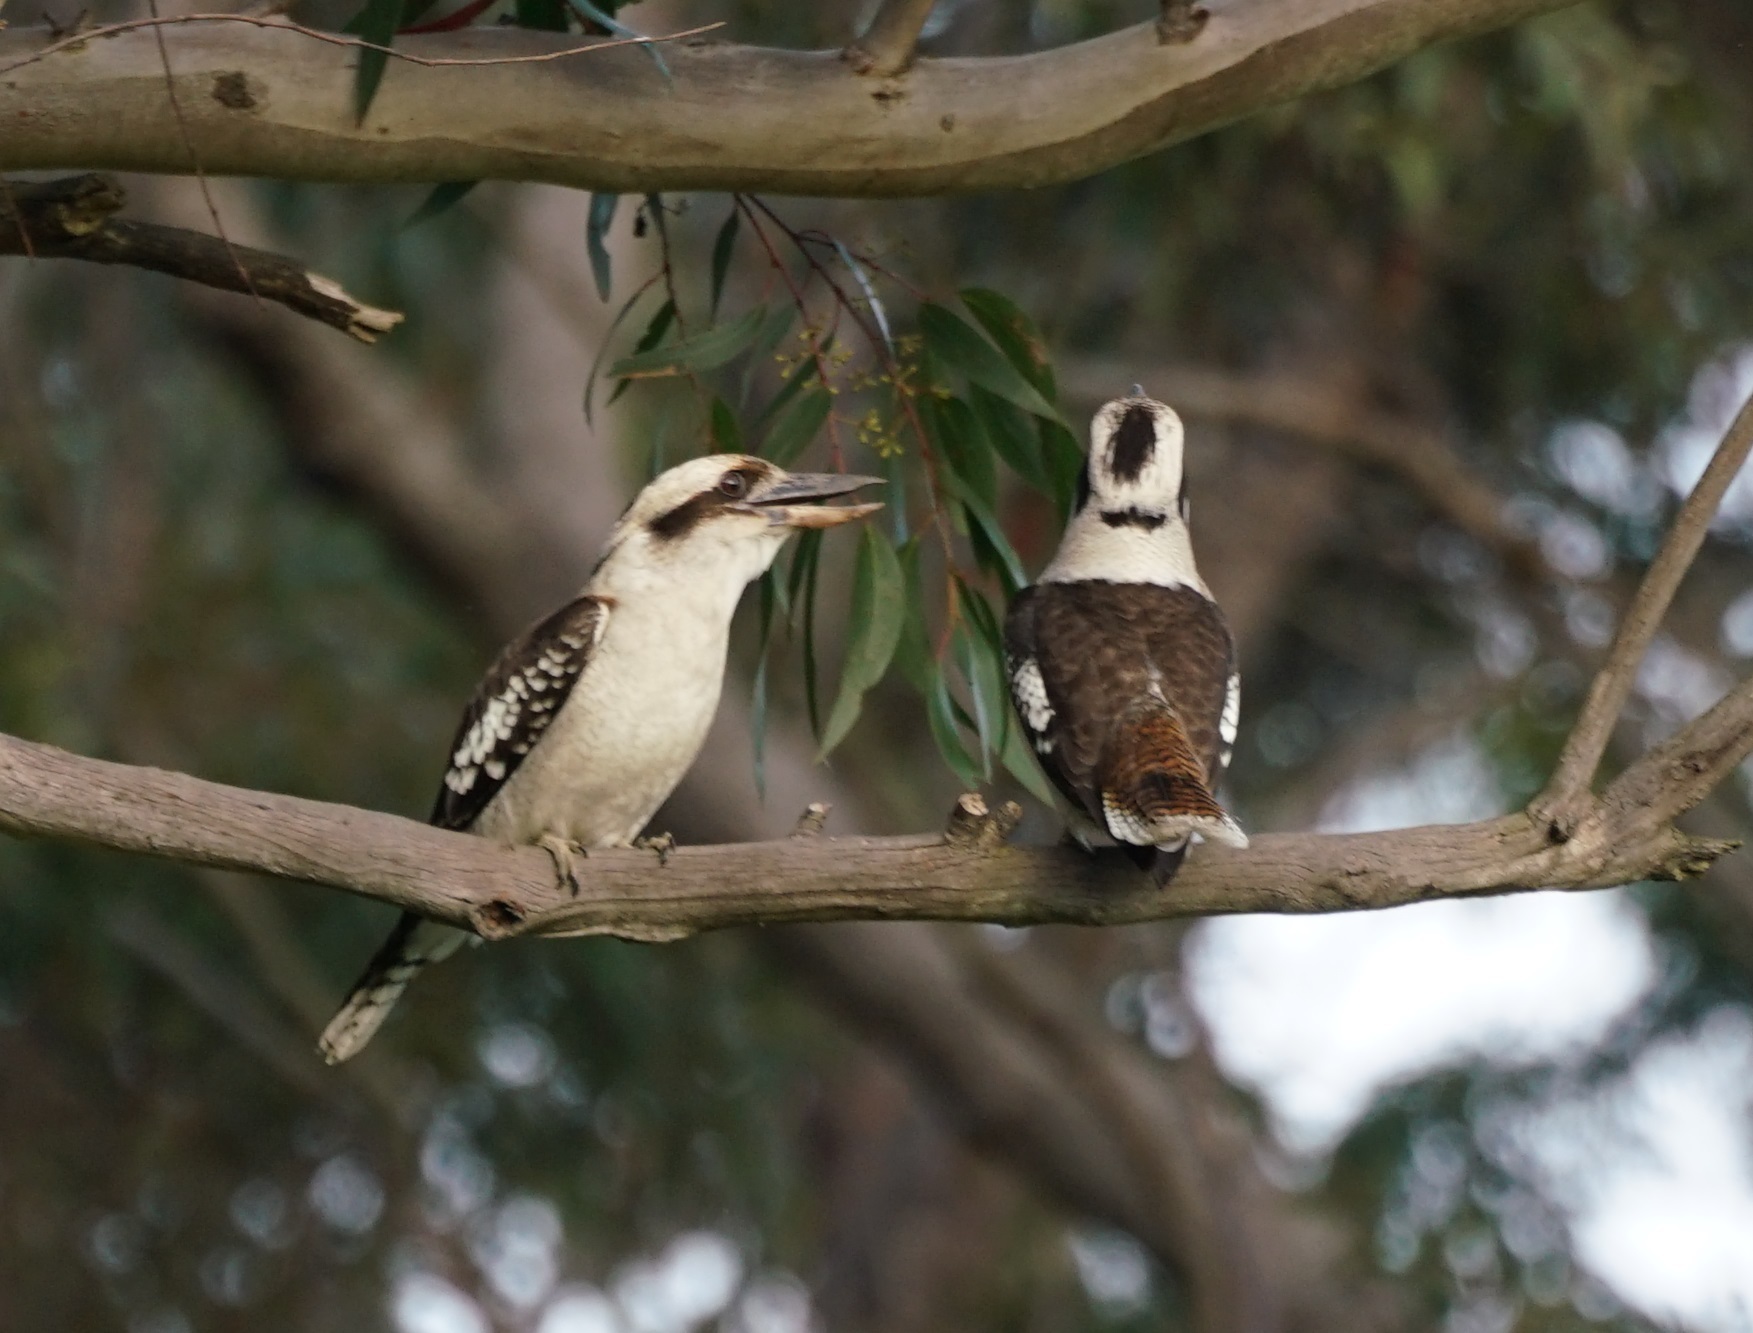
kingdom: Animalia
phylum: Chordata
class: Aves
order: Coraciiformes
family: Alcedinidae
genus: Dacelo
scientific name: Dacelo novaeguineae
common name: Laughing kookaburra
